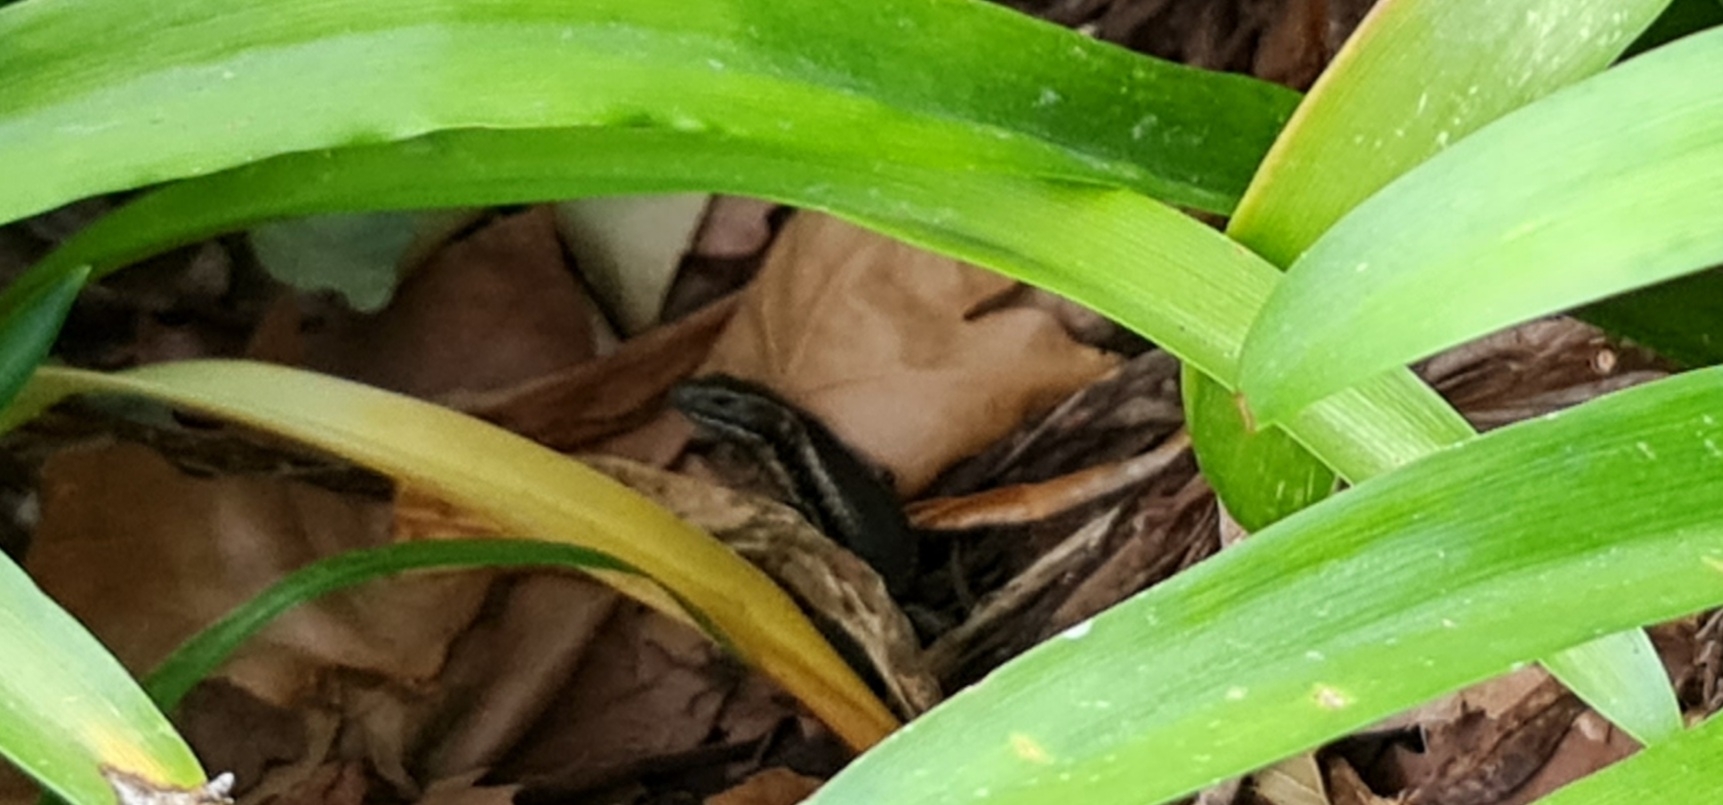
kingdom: Animalia
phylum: Chordata
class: Squamata
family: Scincidae
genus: Eulamprus
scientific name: Eulamprus quoyii
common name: Eastern water skink
